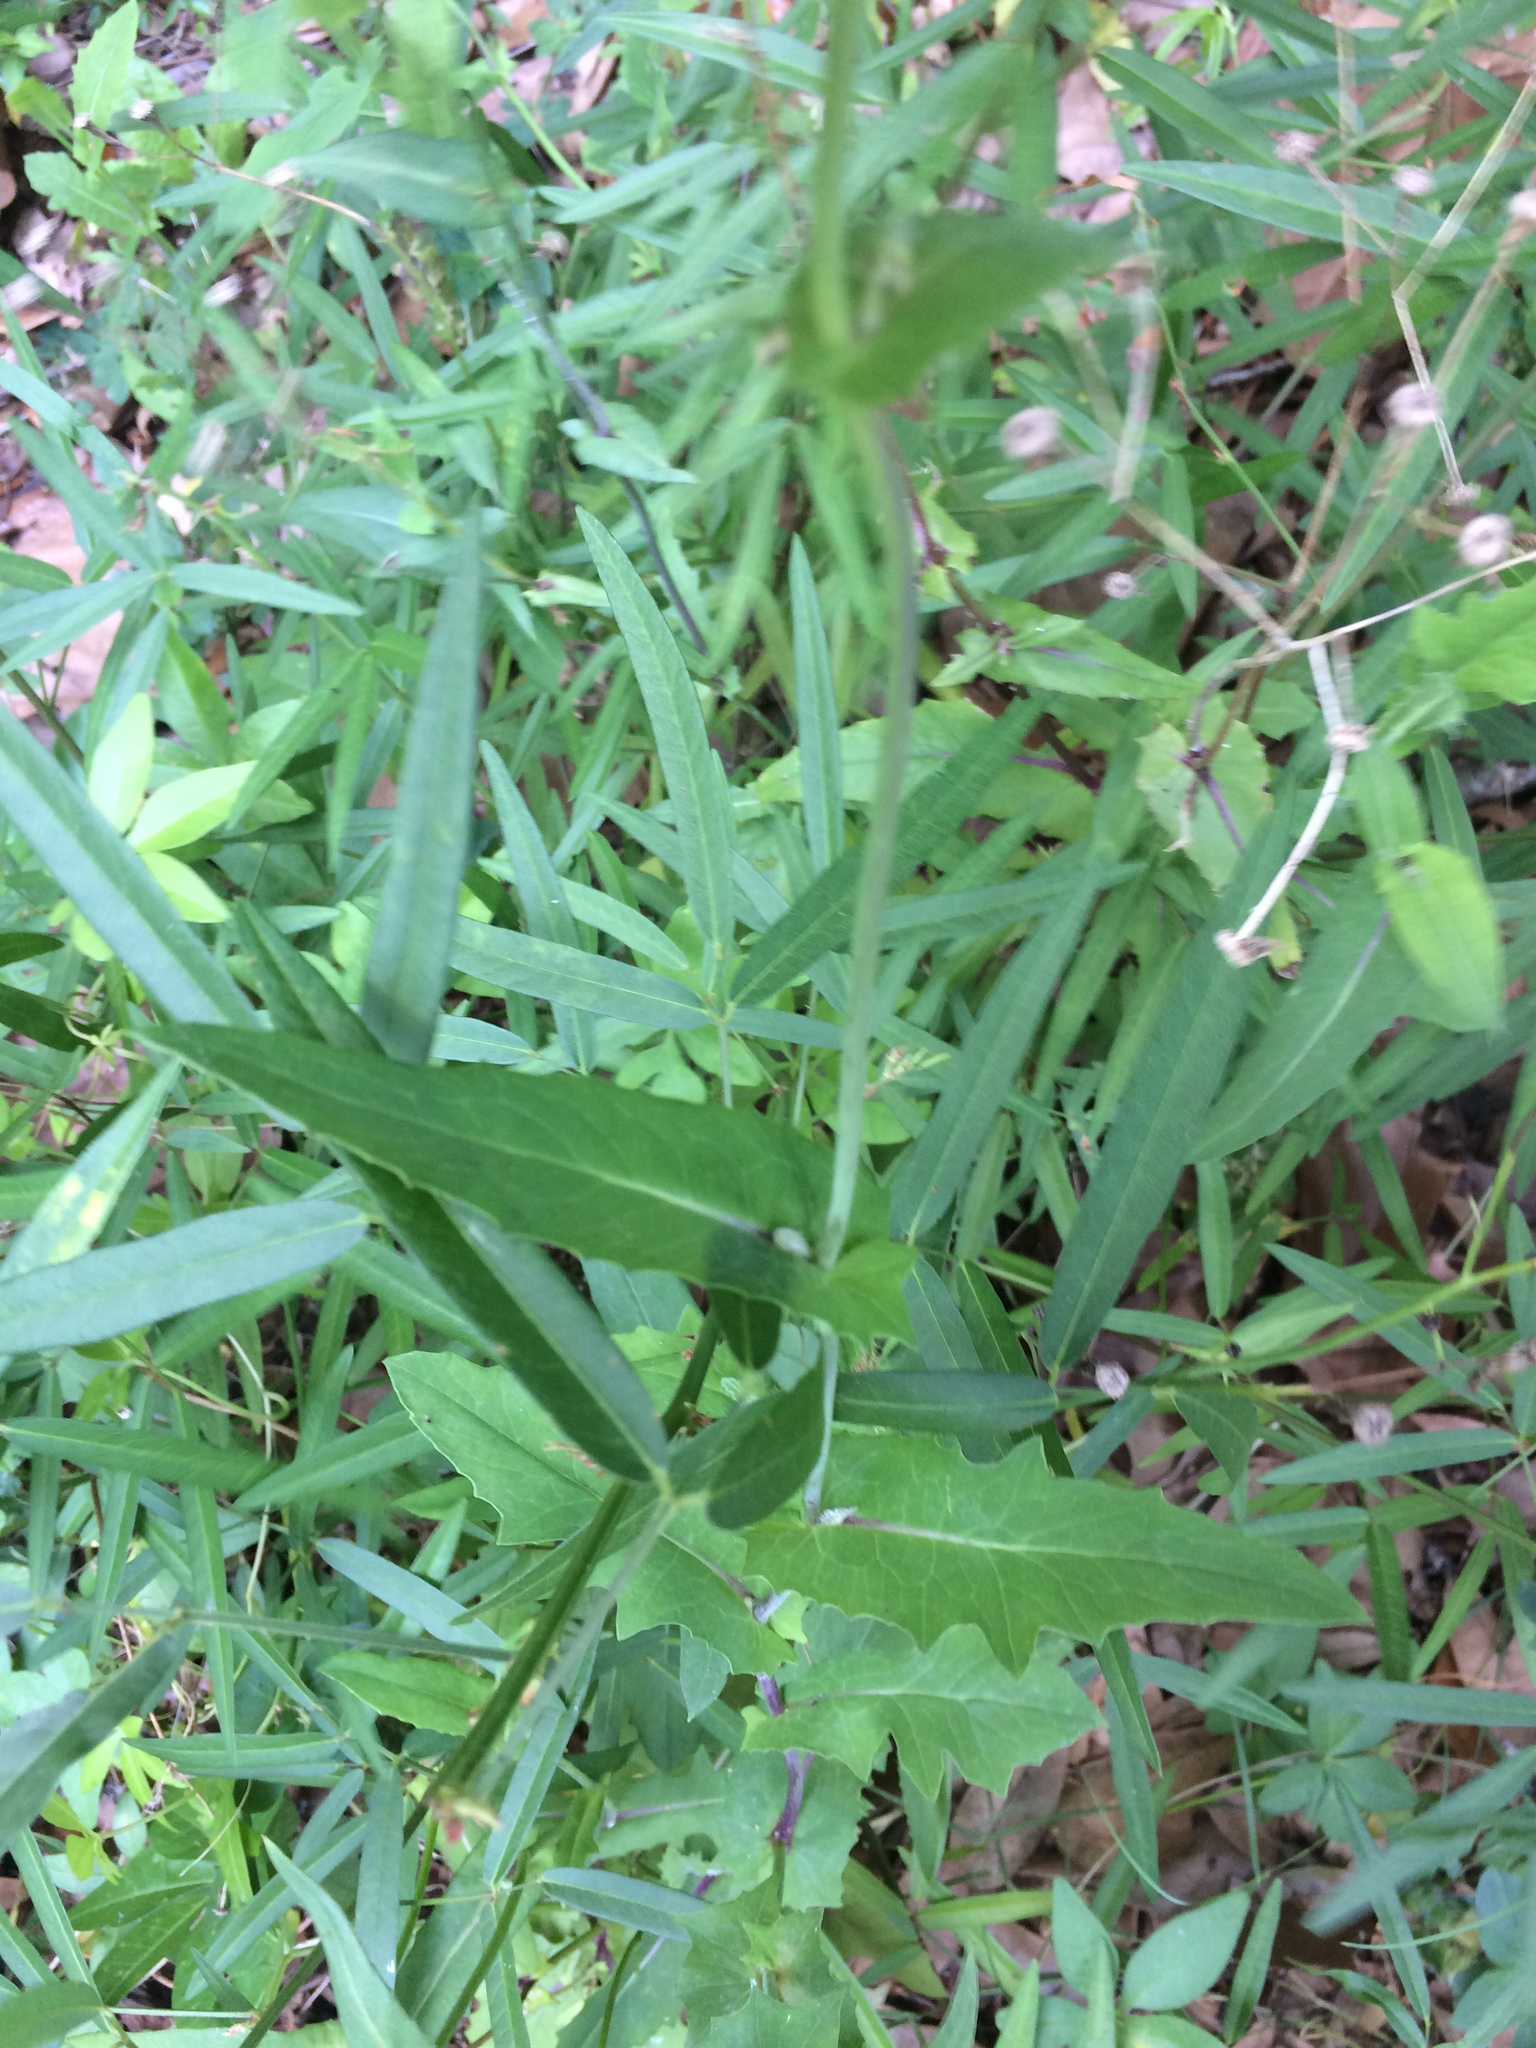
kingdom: Plantae
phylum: Tracheophyta
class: Magnoliopsida
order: Asterales
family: Asteraceae
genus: Emilia
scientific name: Emilia sonchifolia
